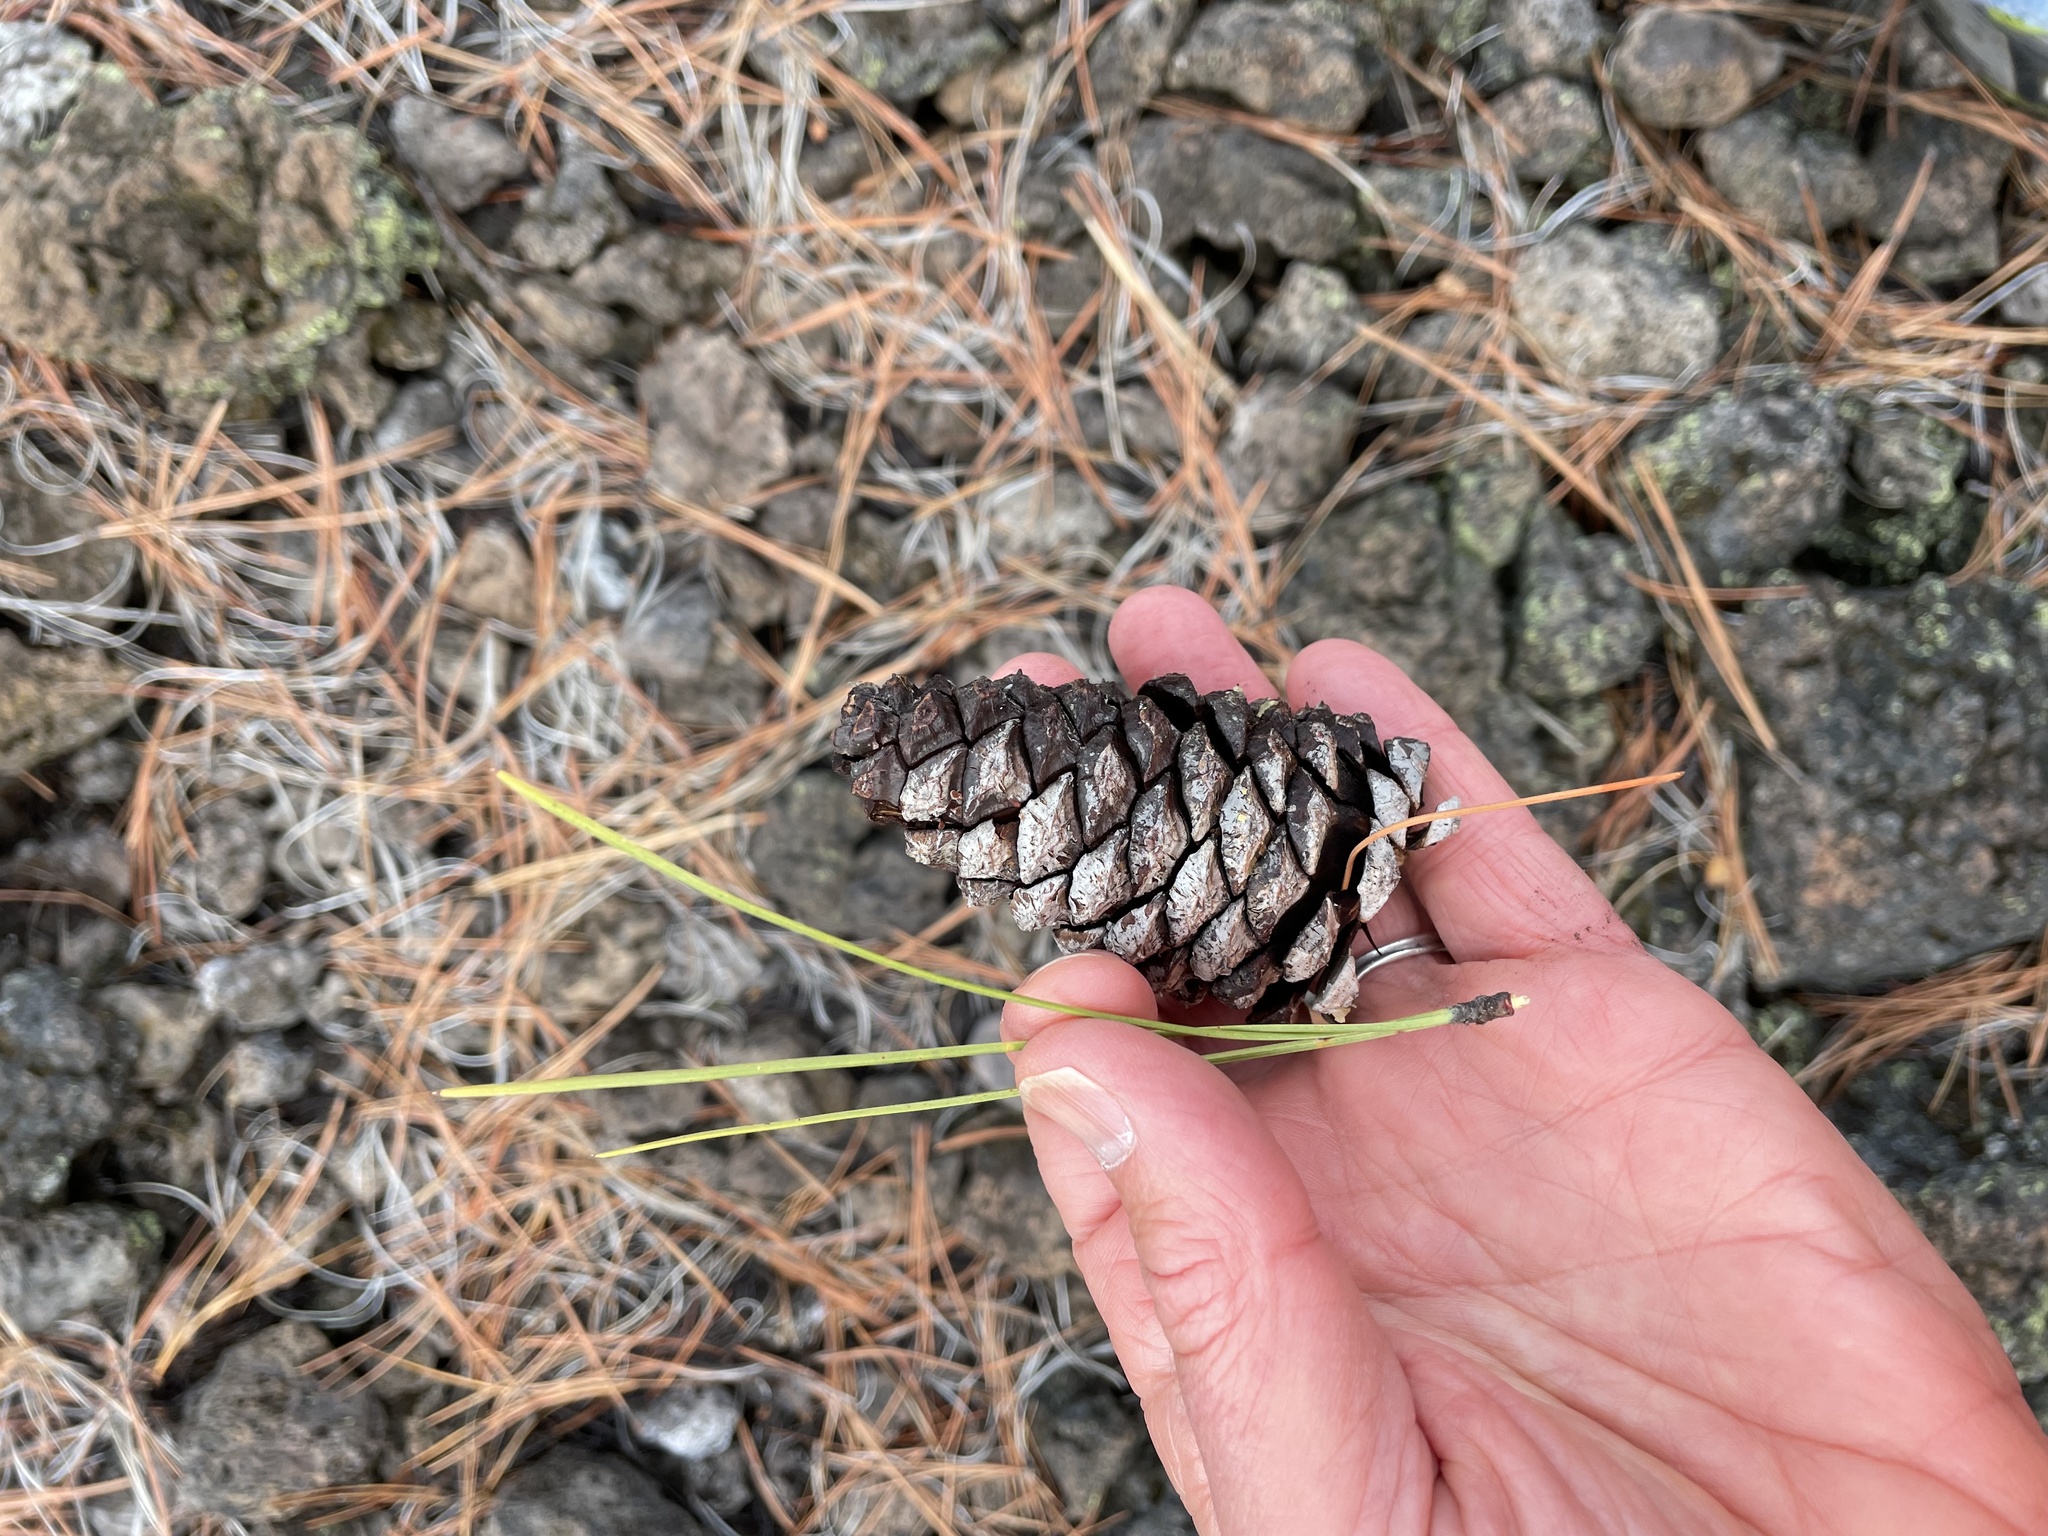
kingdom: Plantae
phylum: Tracheophyta
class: Pinopsida
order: Pinales
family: Pinaceae
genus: Pinus
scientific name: Pinus ponderosa
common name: Western yellow-pine
